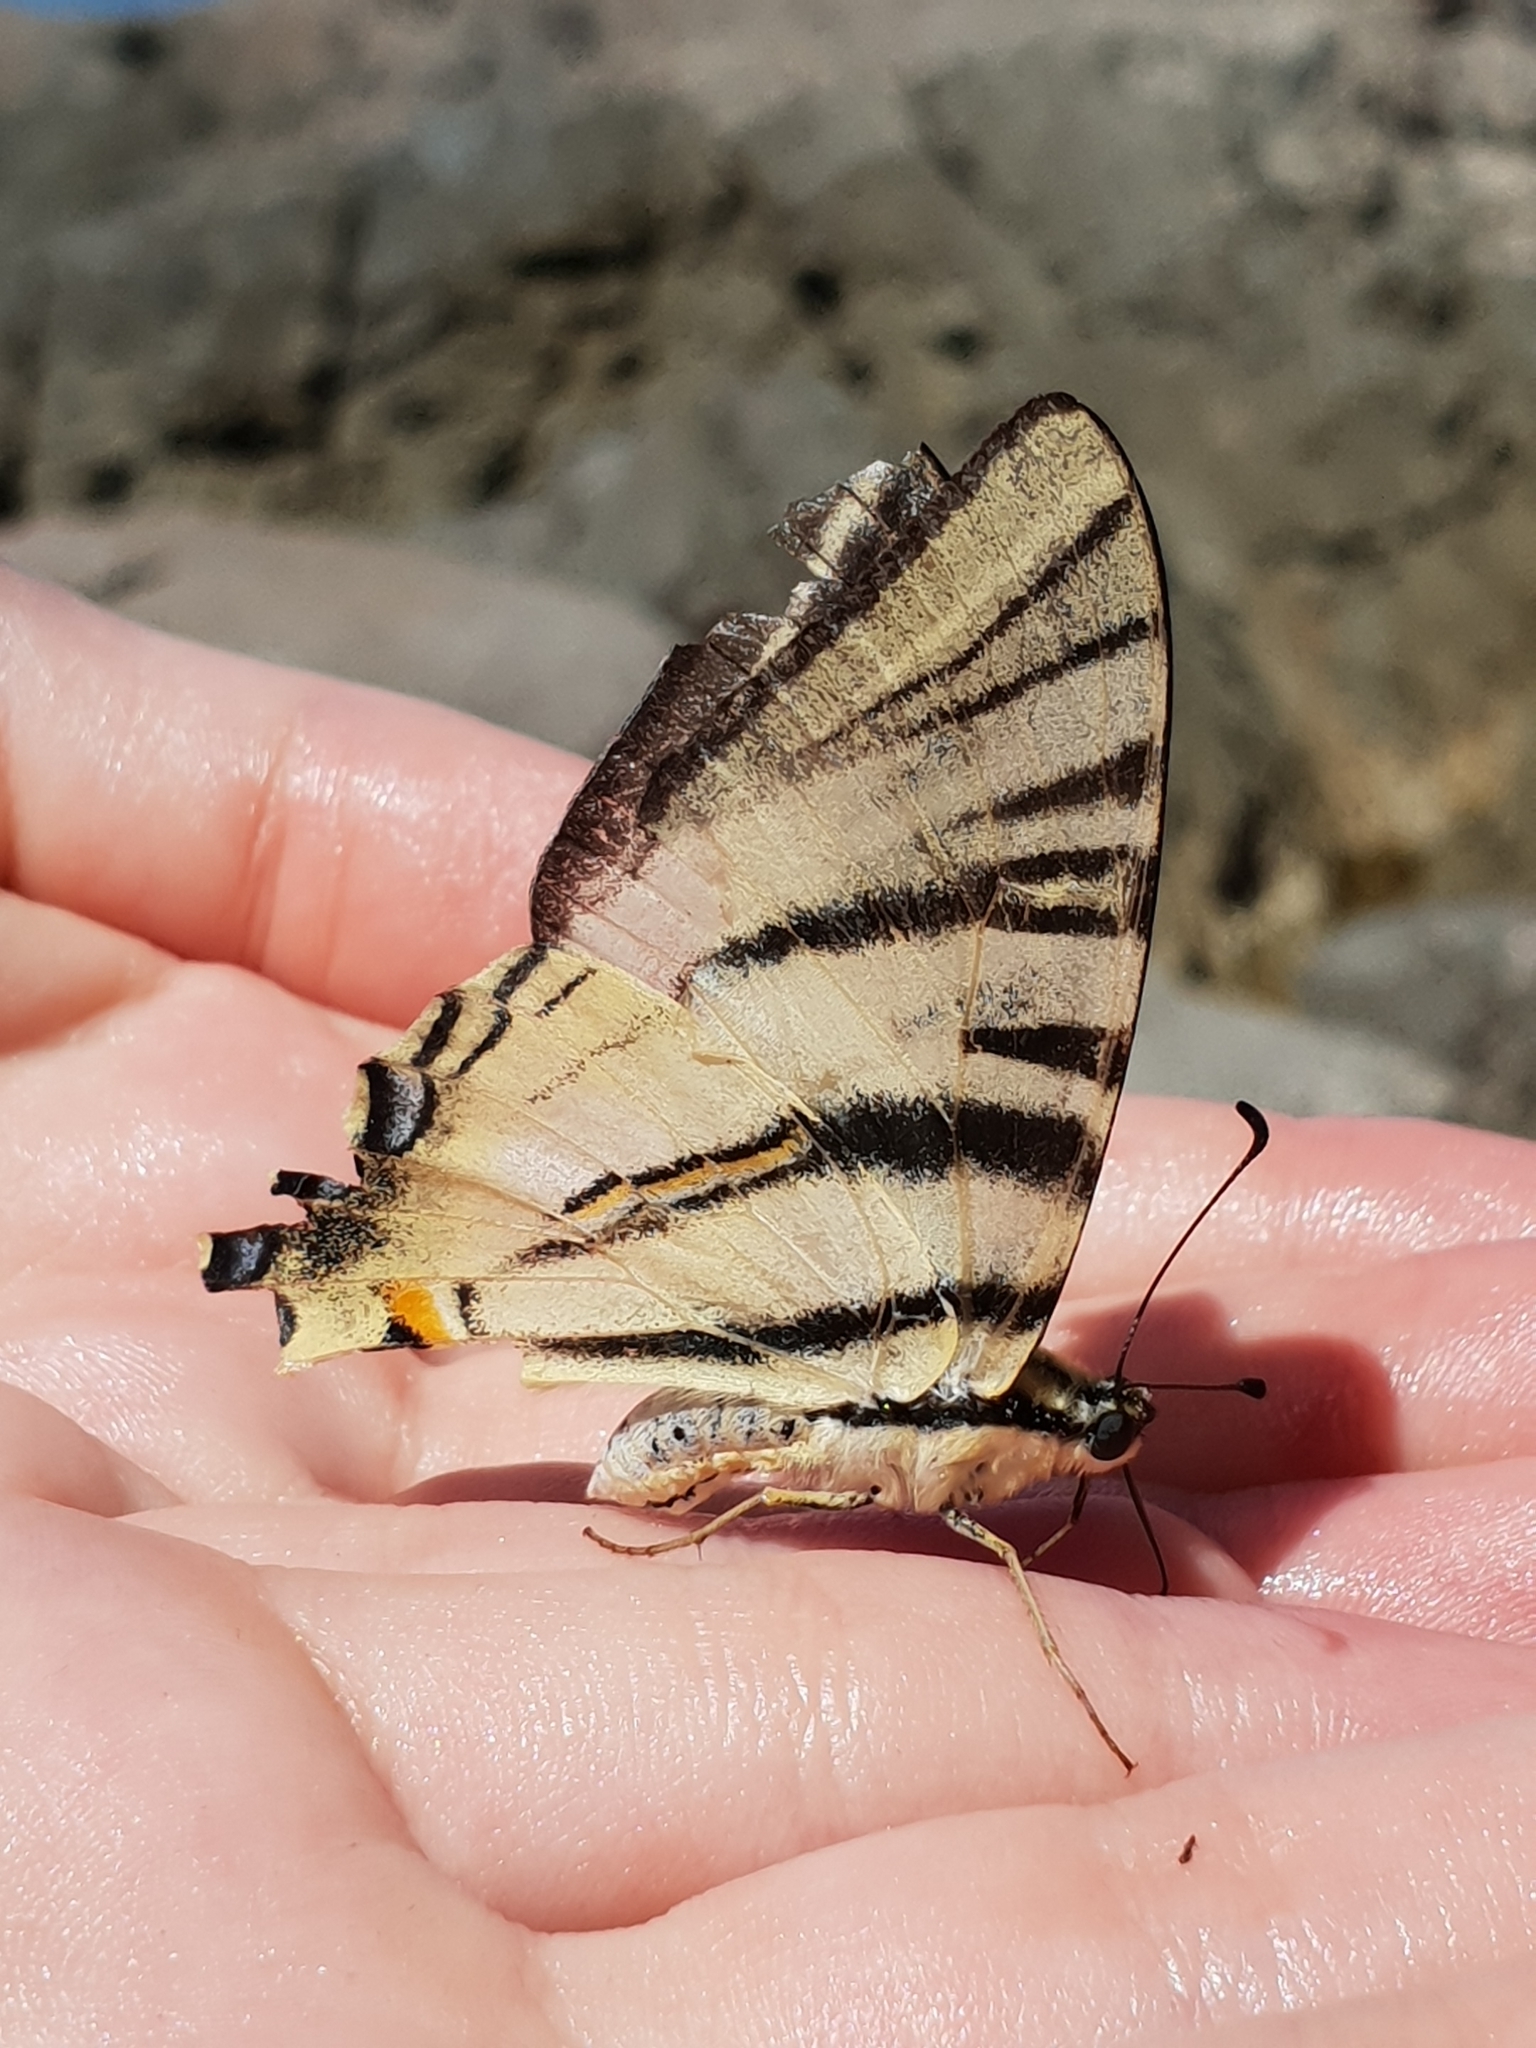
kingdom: Animalia
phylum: Arthropoda
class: Insecta
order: Lepidoptera
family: Papilionidae
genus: Iphiclides
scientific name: Iphiclides podalirius
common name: Scarce swallowtail
